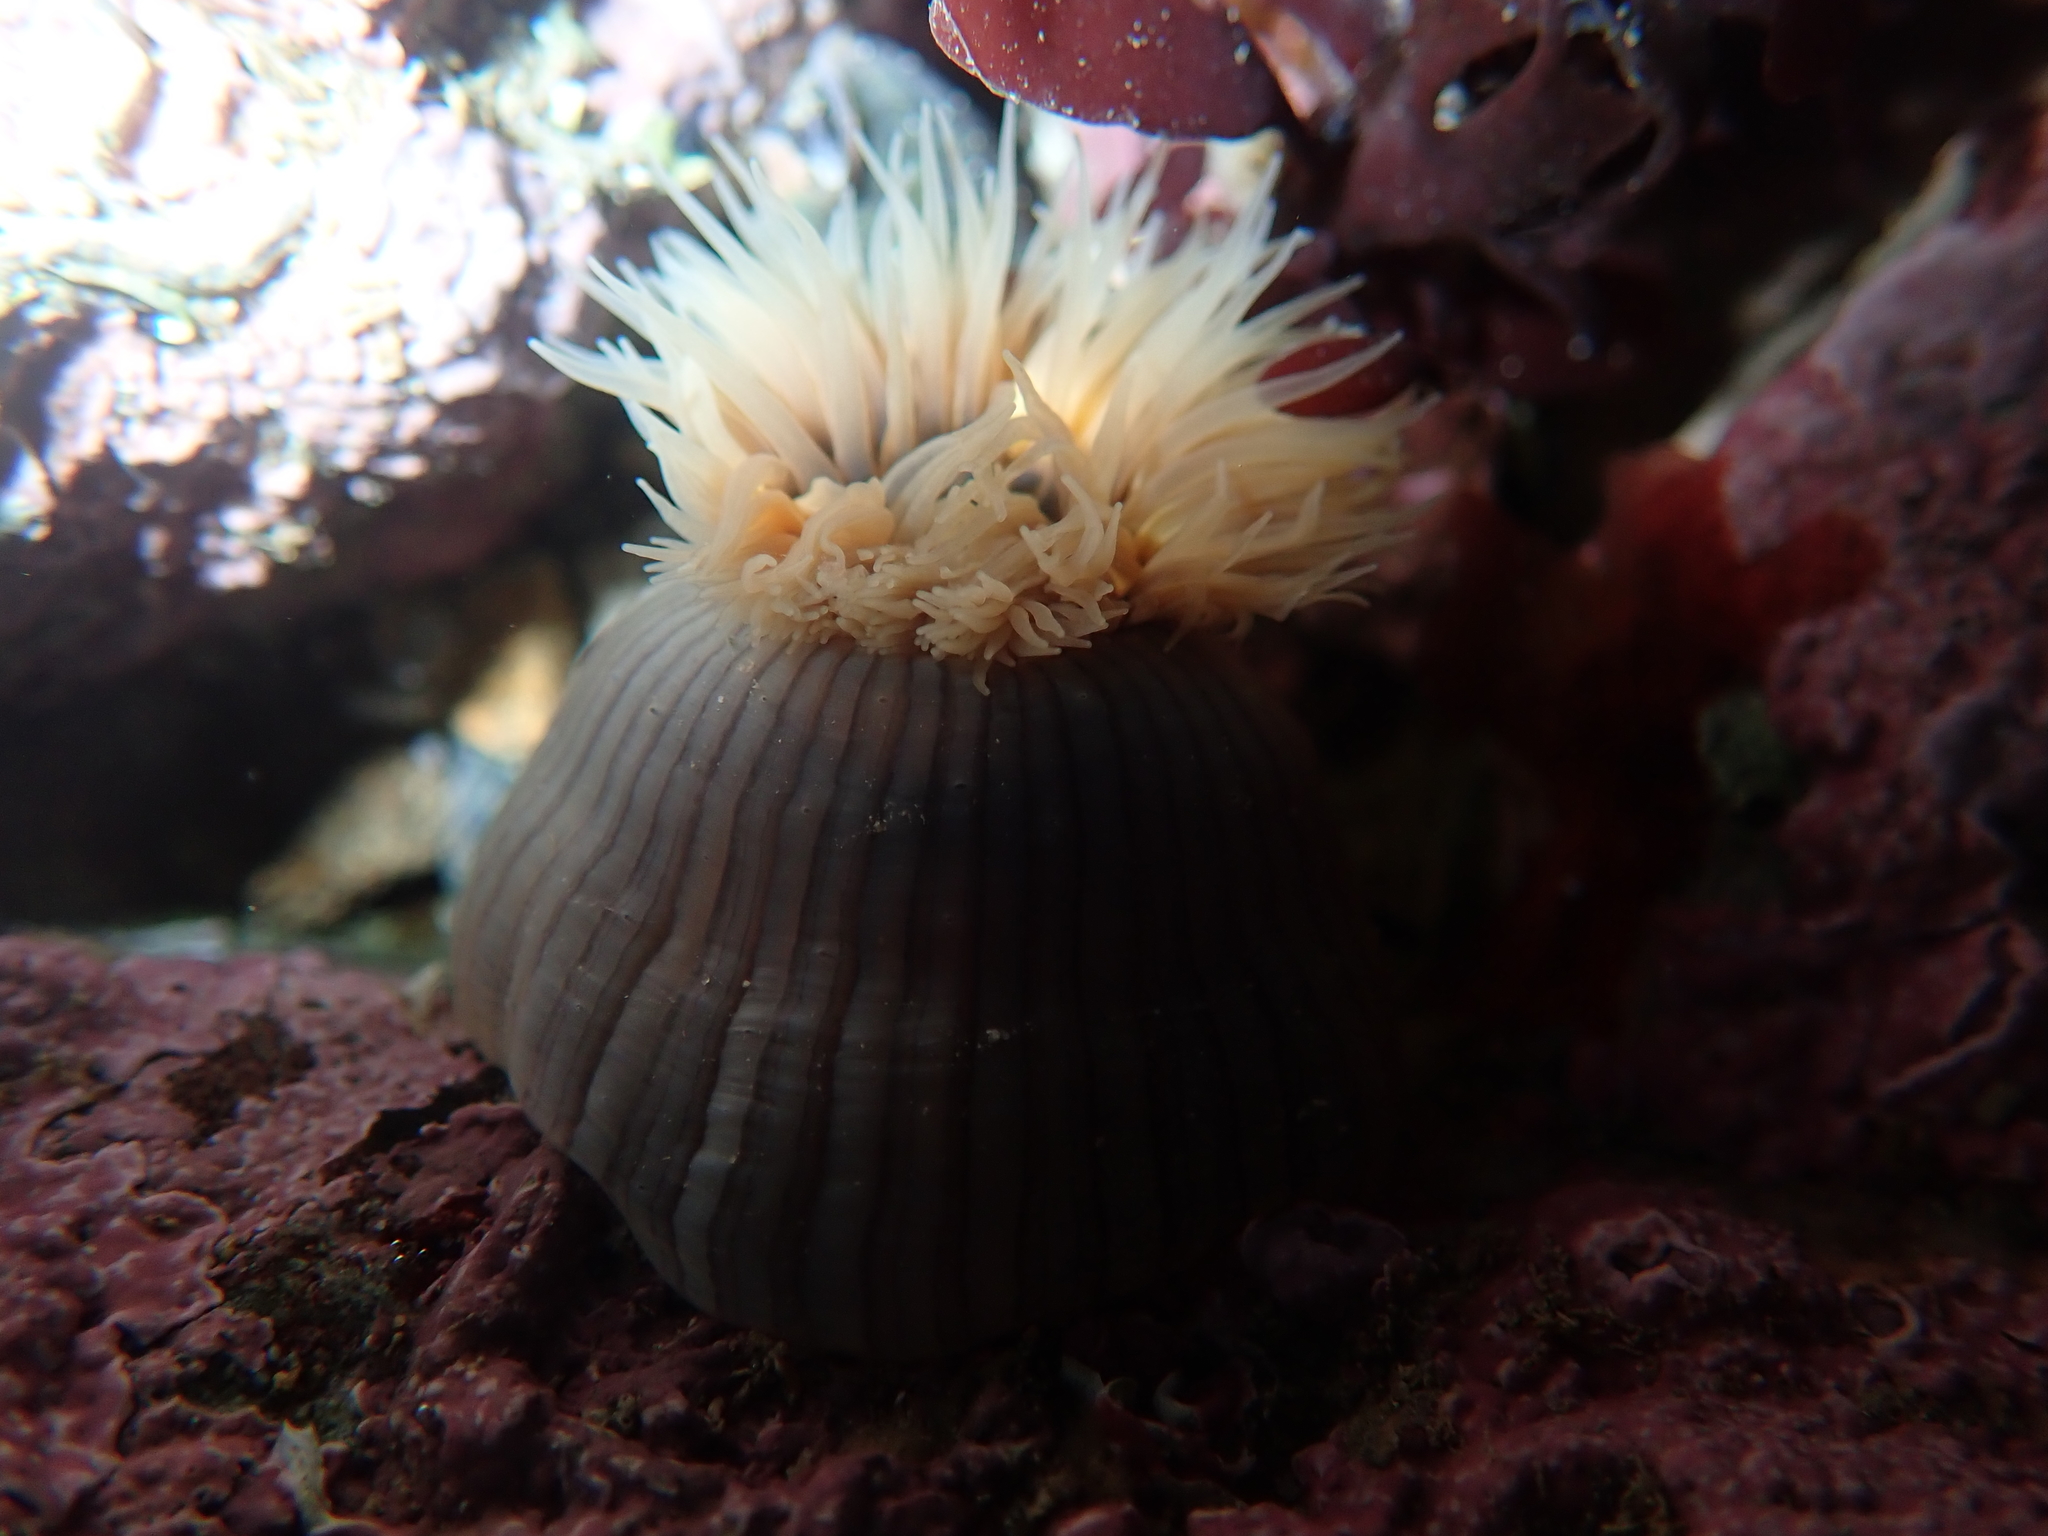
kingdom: Animalia
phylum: Cnidaria
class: Anthozoa
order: Actiniaria
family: Diadumenidae
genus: Diadumene
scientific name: Diadumene neozelanica
